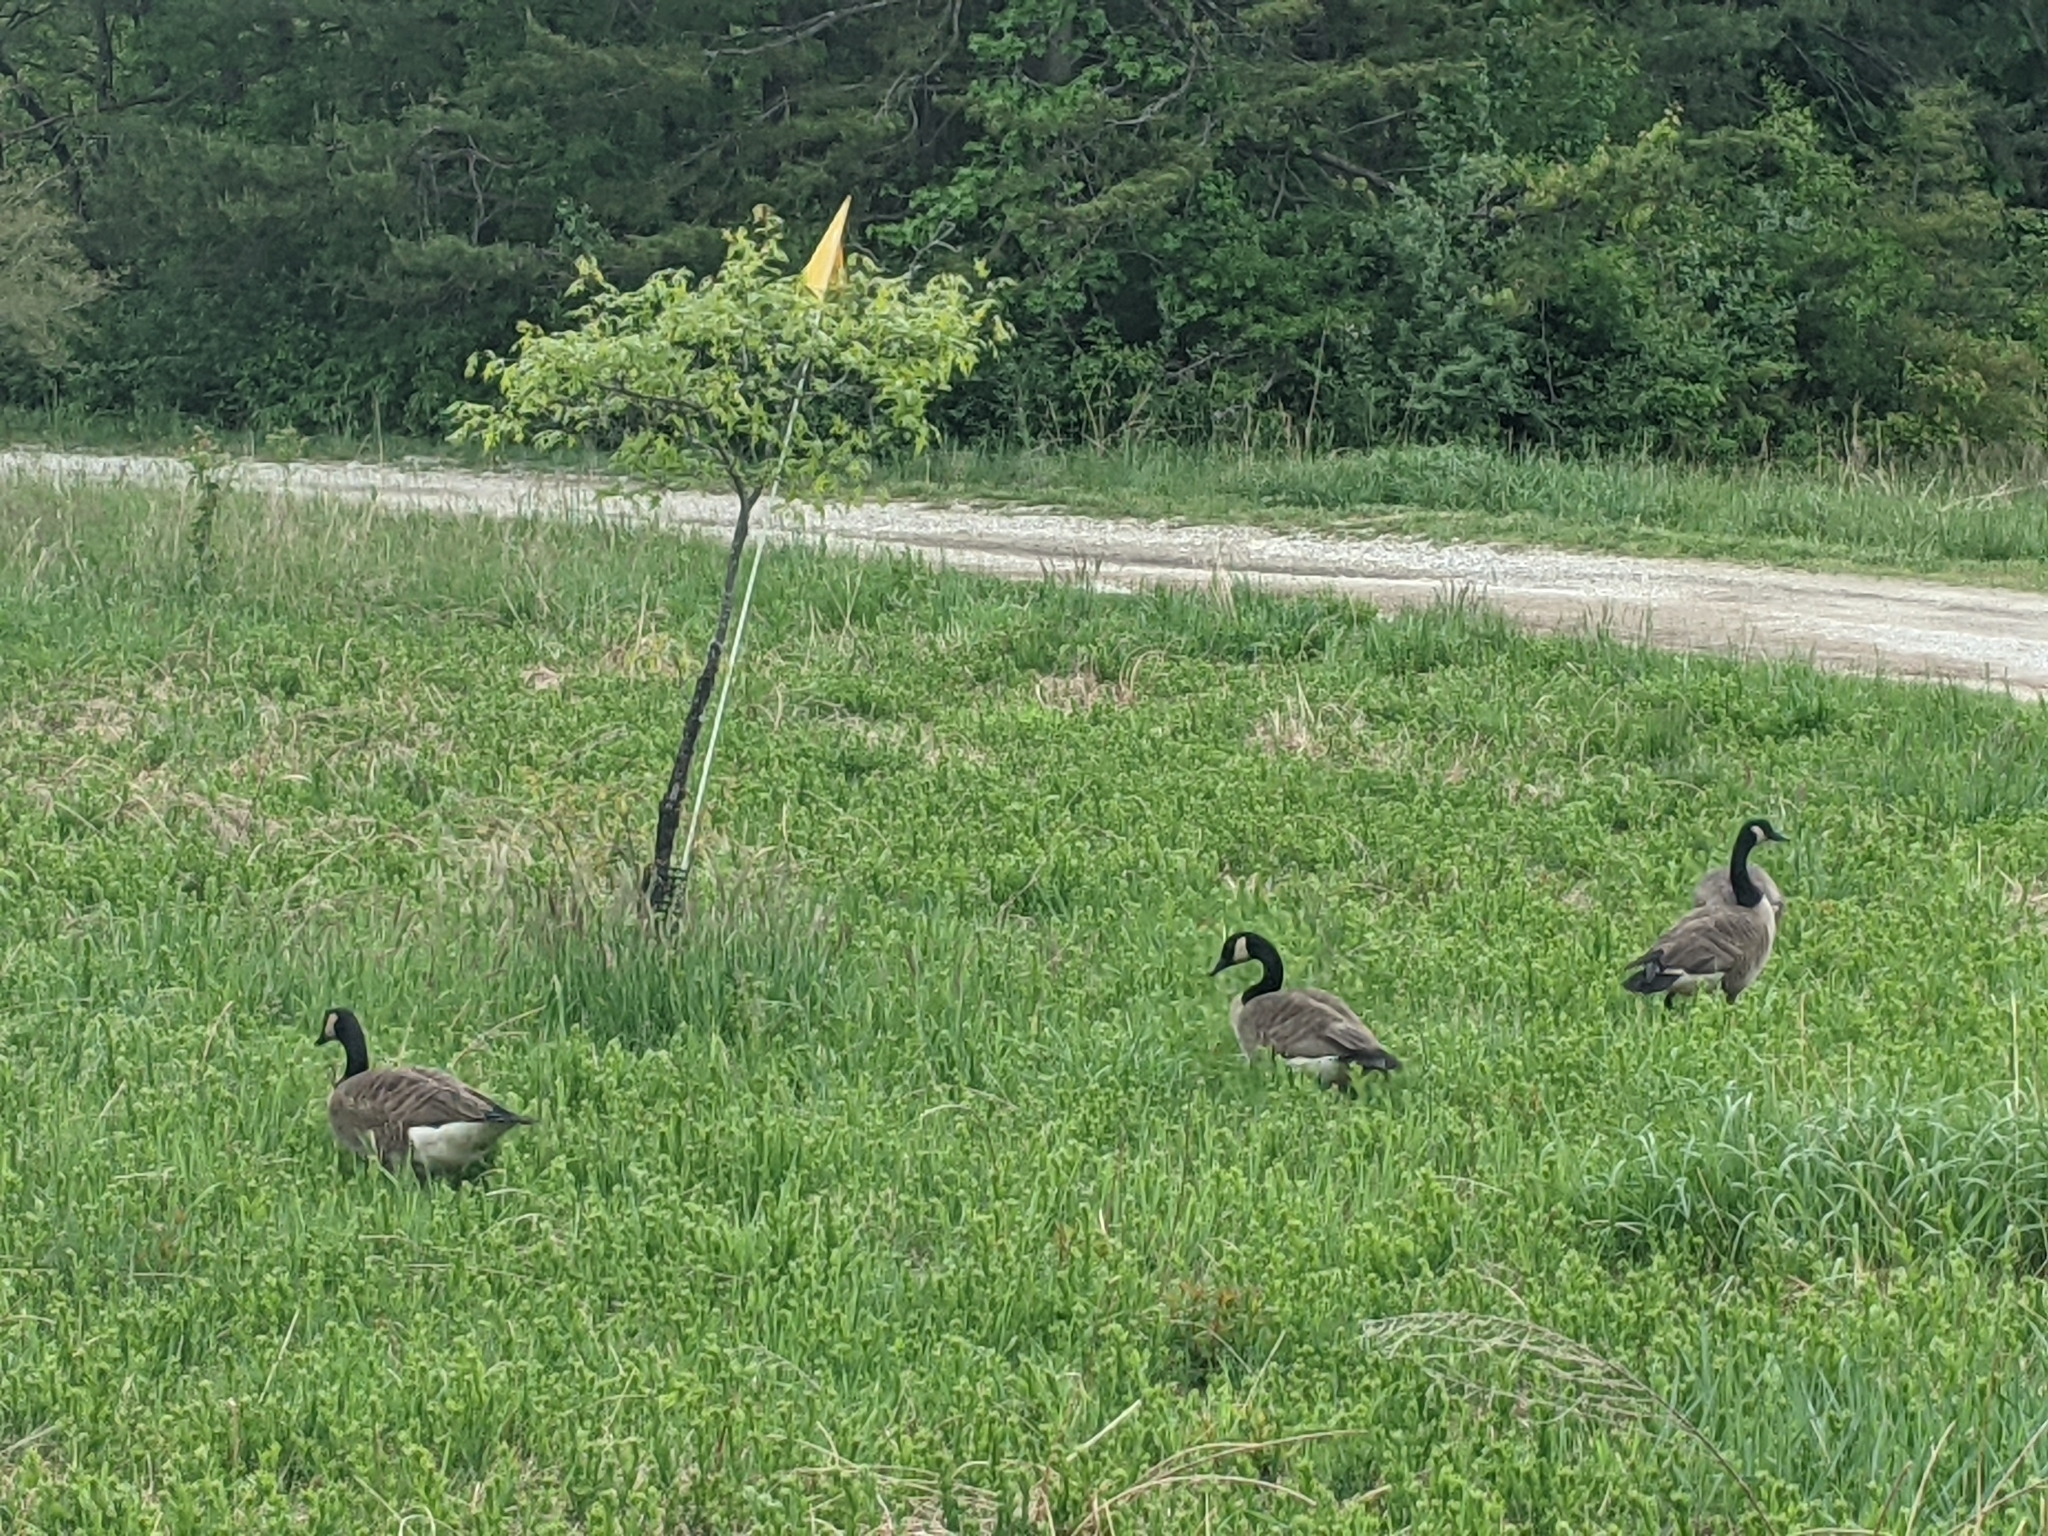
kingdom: Animalia
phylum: Chordata
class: Aves
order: Anseriformes
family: Anatidae
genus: Branta
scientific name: Branta canadensis
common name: Canada goose
